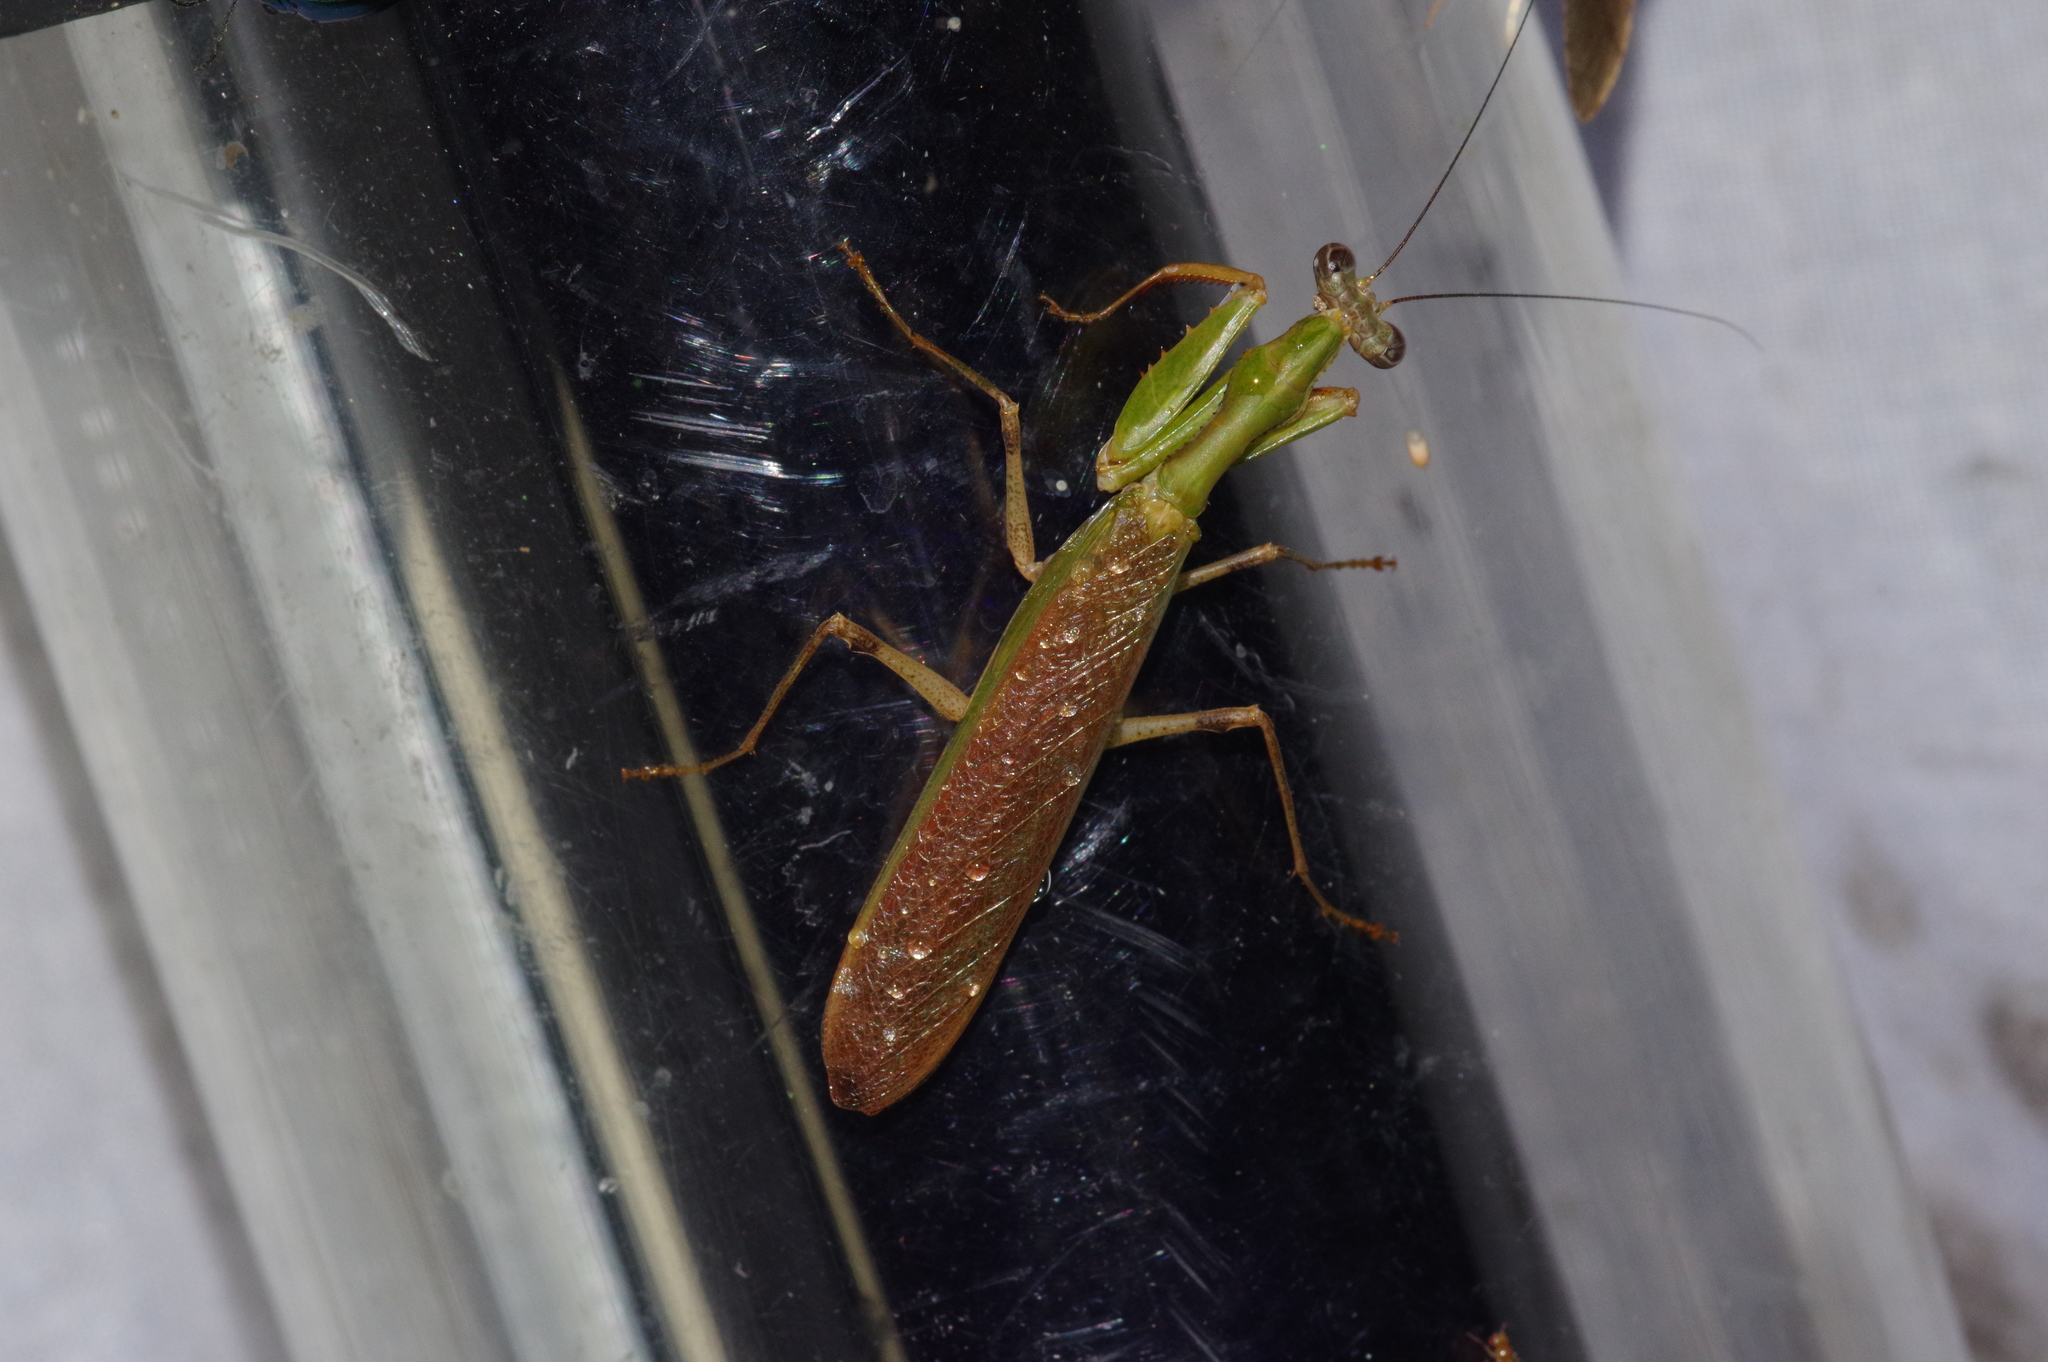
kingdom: Animalia
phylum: Arthropoda
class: Insecta
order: Mantodea
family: Hymenopodidae
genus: Acromantis
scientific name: Acromantis satsumensis
